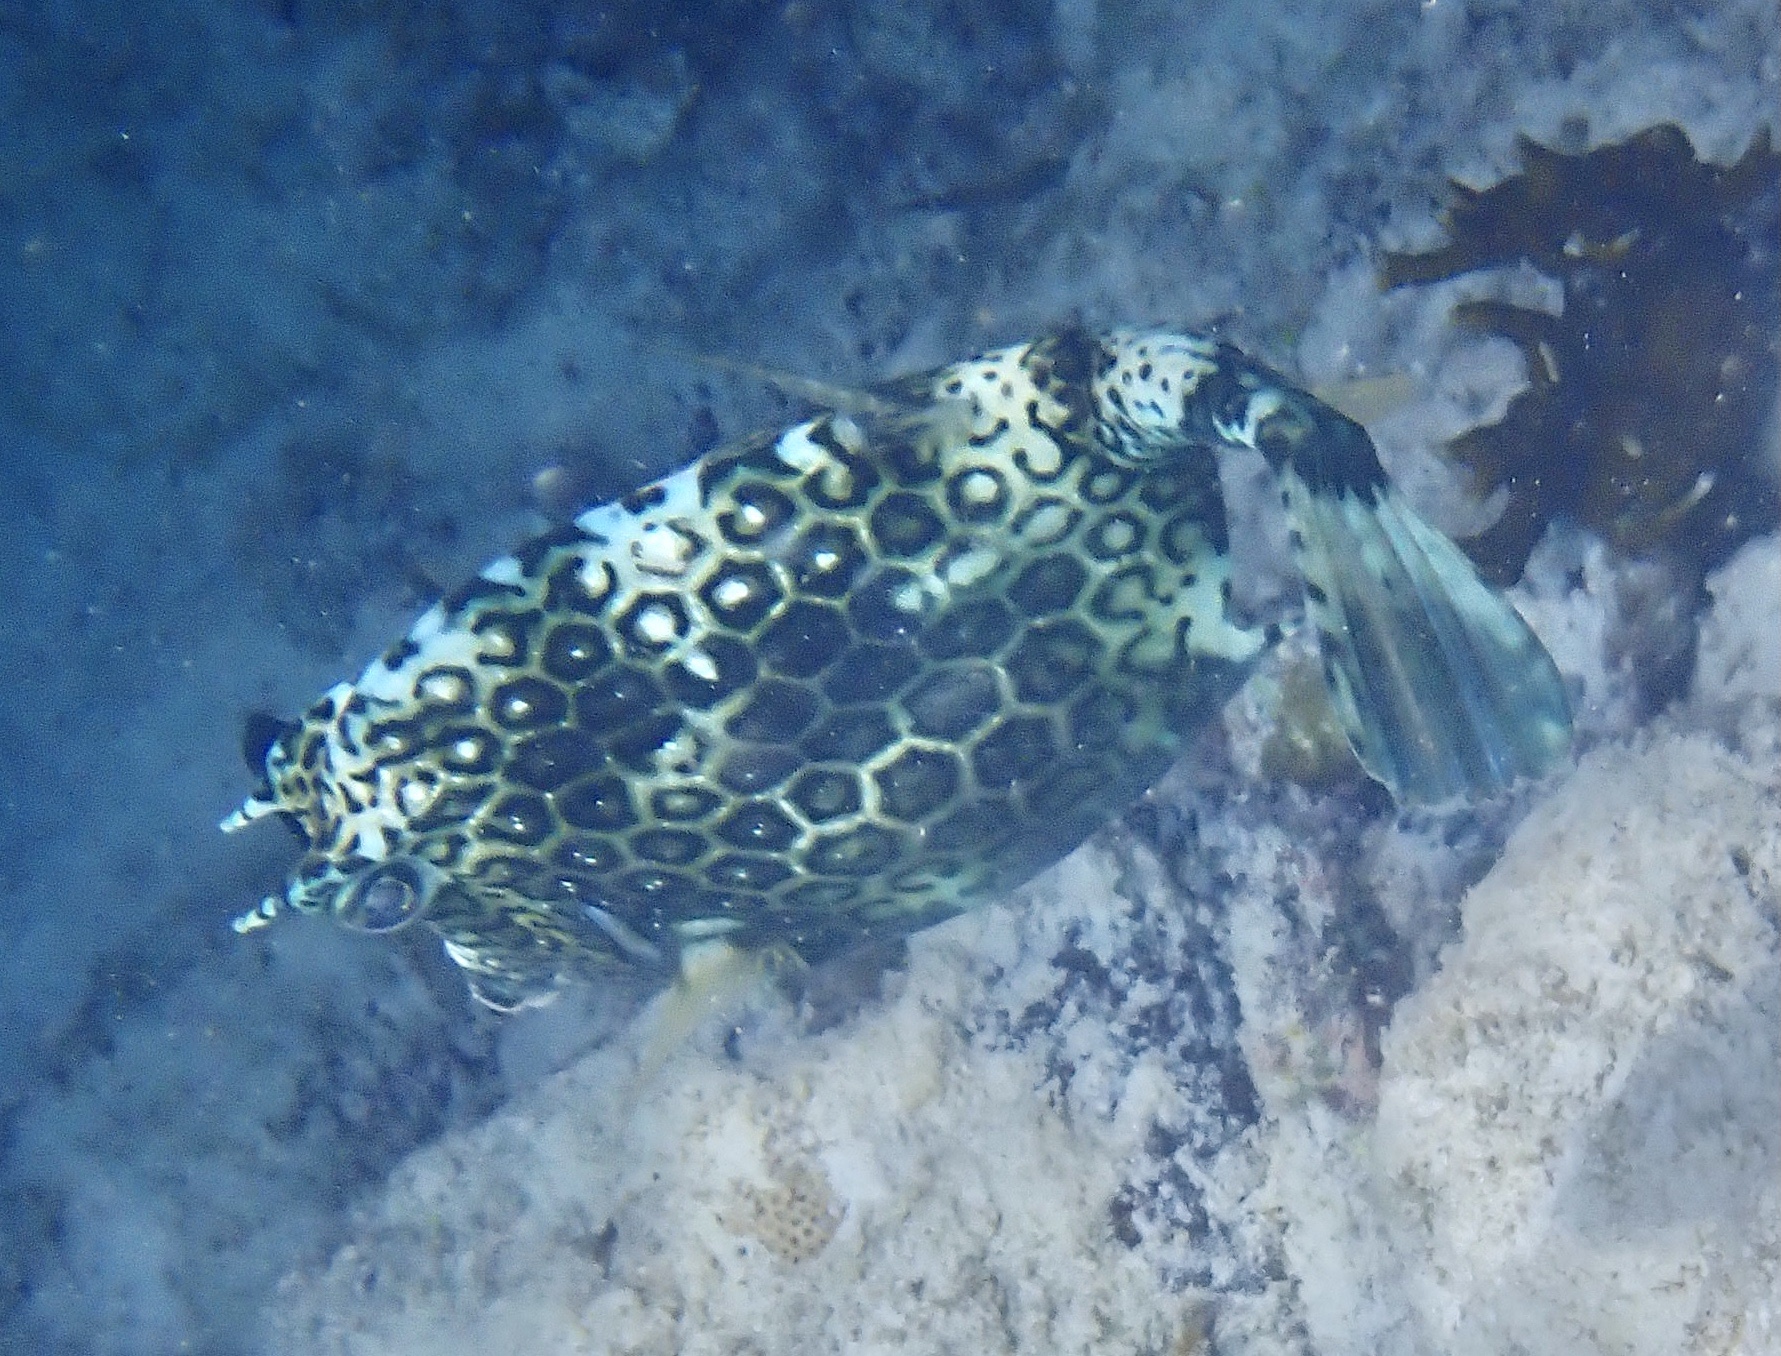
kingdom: Animalia
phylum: Chordata
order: Tetraodontiformes
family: Ostraciidae
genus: Acanthostracion
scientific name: Acanthostracion polygonius
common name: Honeycomb cowfish
